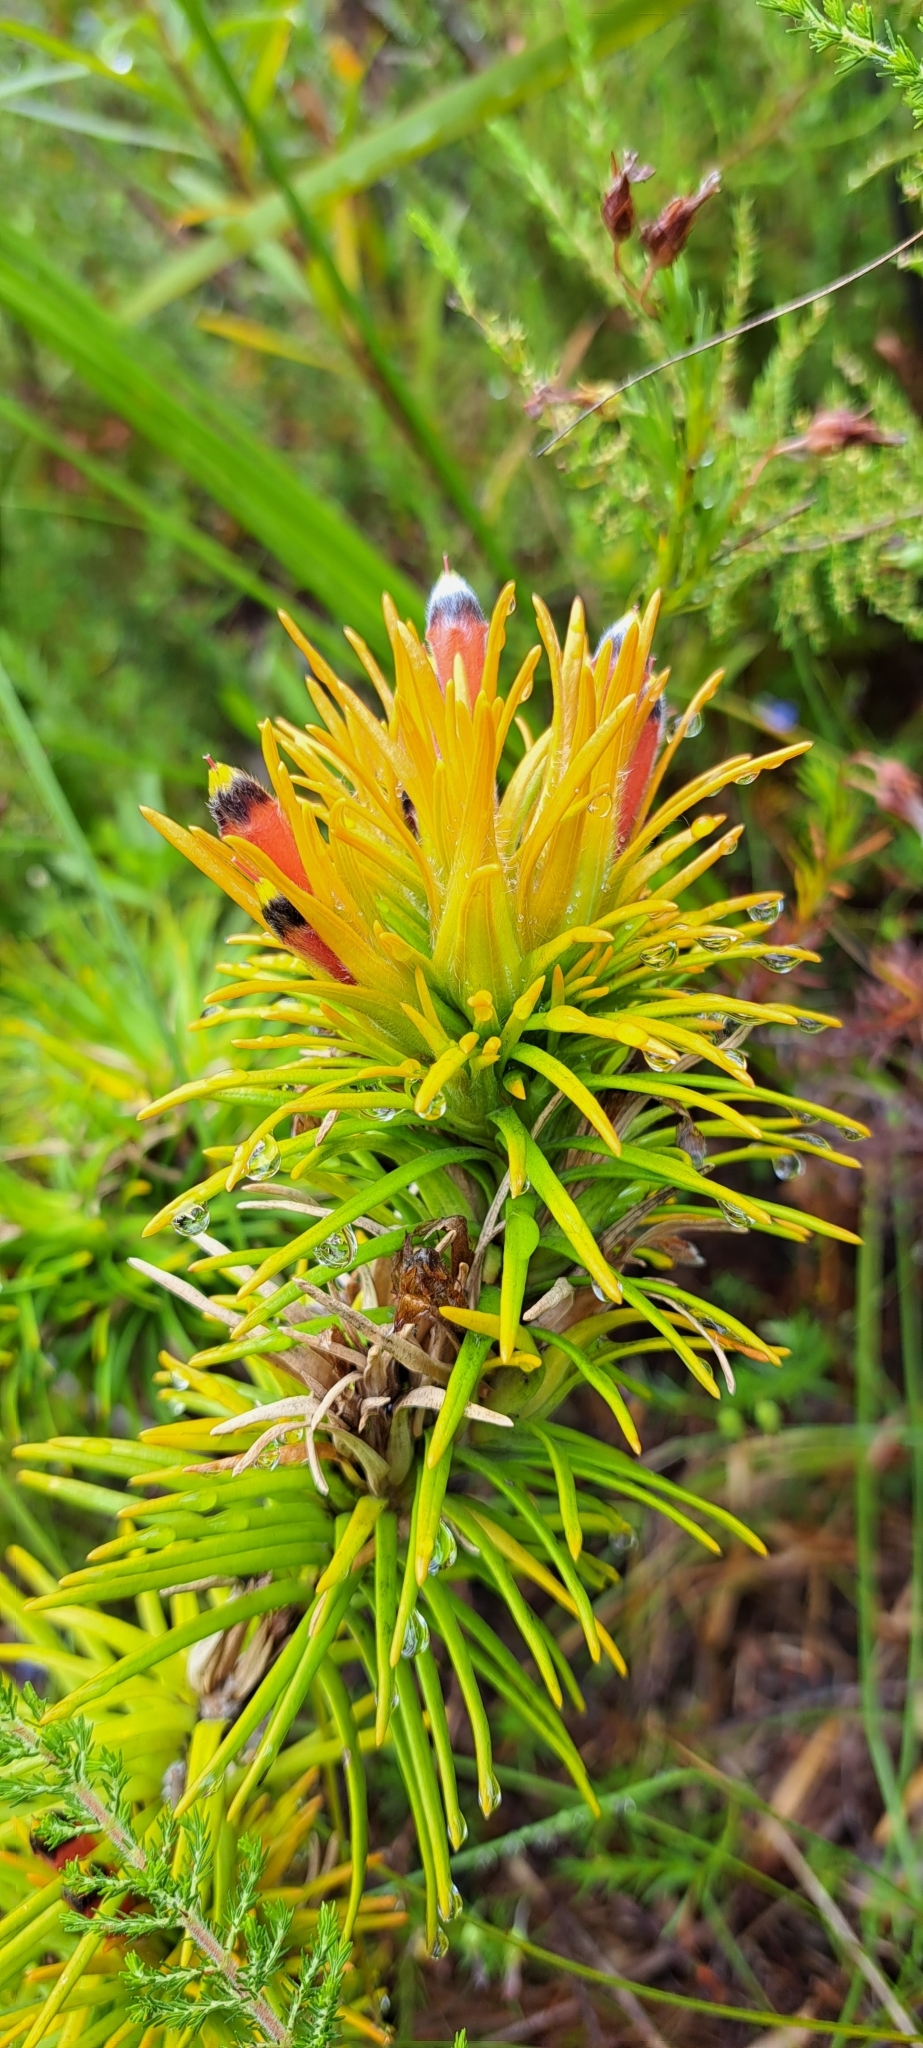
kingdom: Plantae
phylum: Tracheophyta
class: Magnoliopsida
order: Lamiales
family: Stilbaceae
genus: Retzia
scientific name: Retzia capensis
